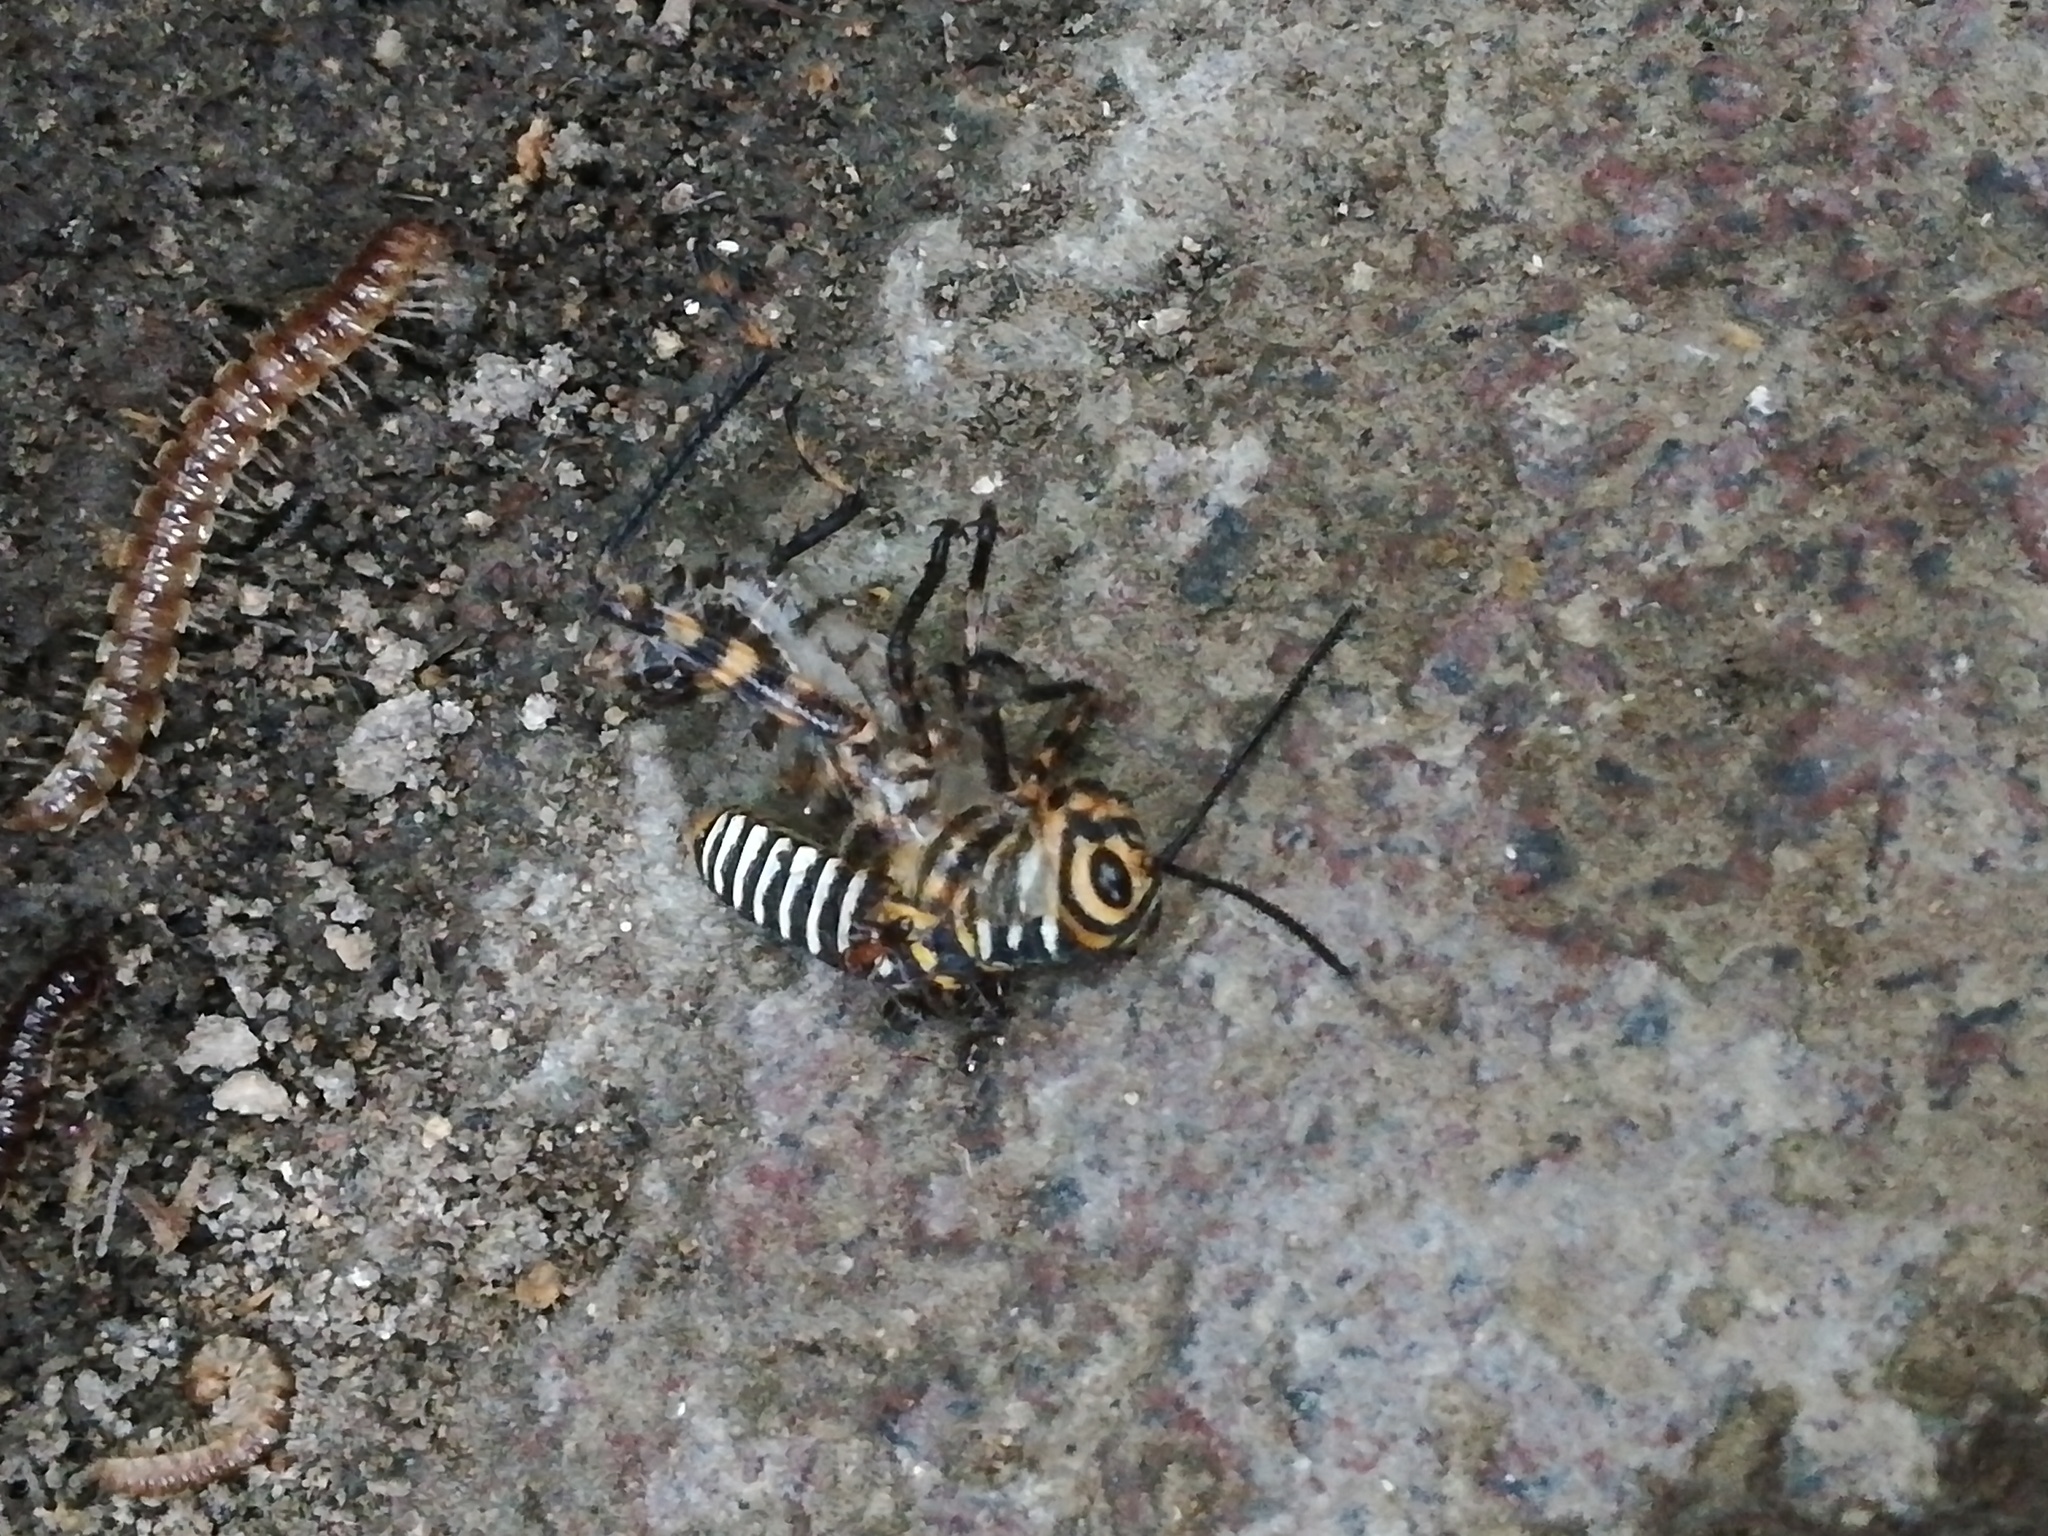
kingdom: Animalia
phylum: Arthropoda
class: Insecta
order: Orthoptera
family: Romaleidae
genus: Tropidacris
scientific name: Tropidacris cristata
